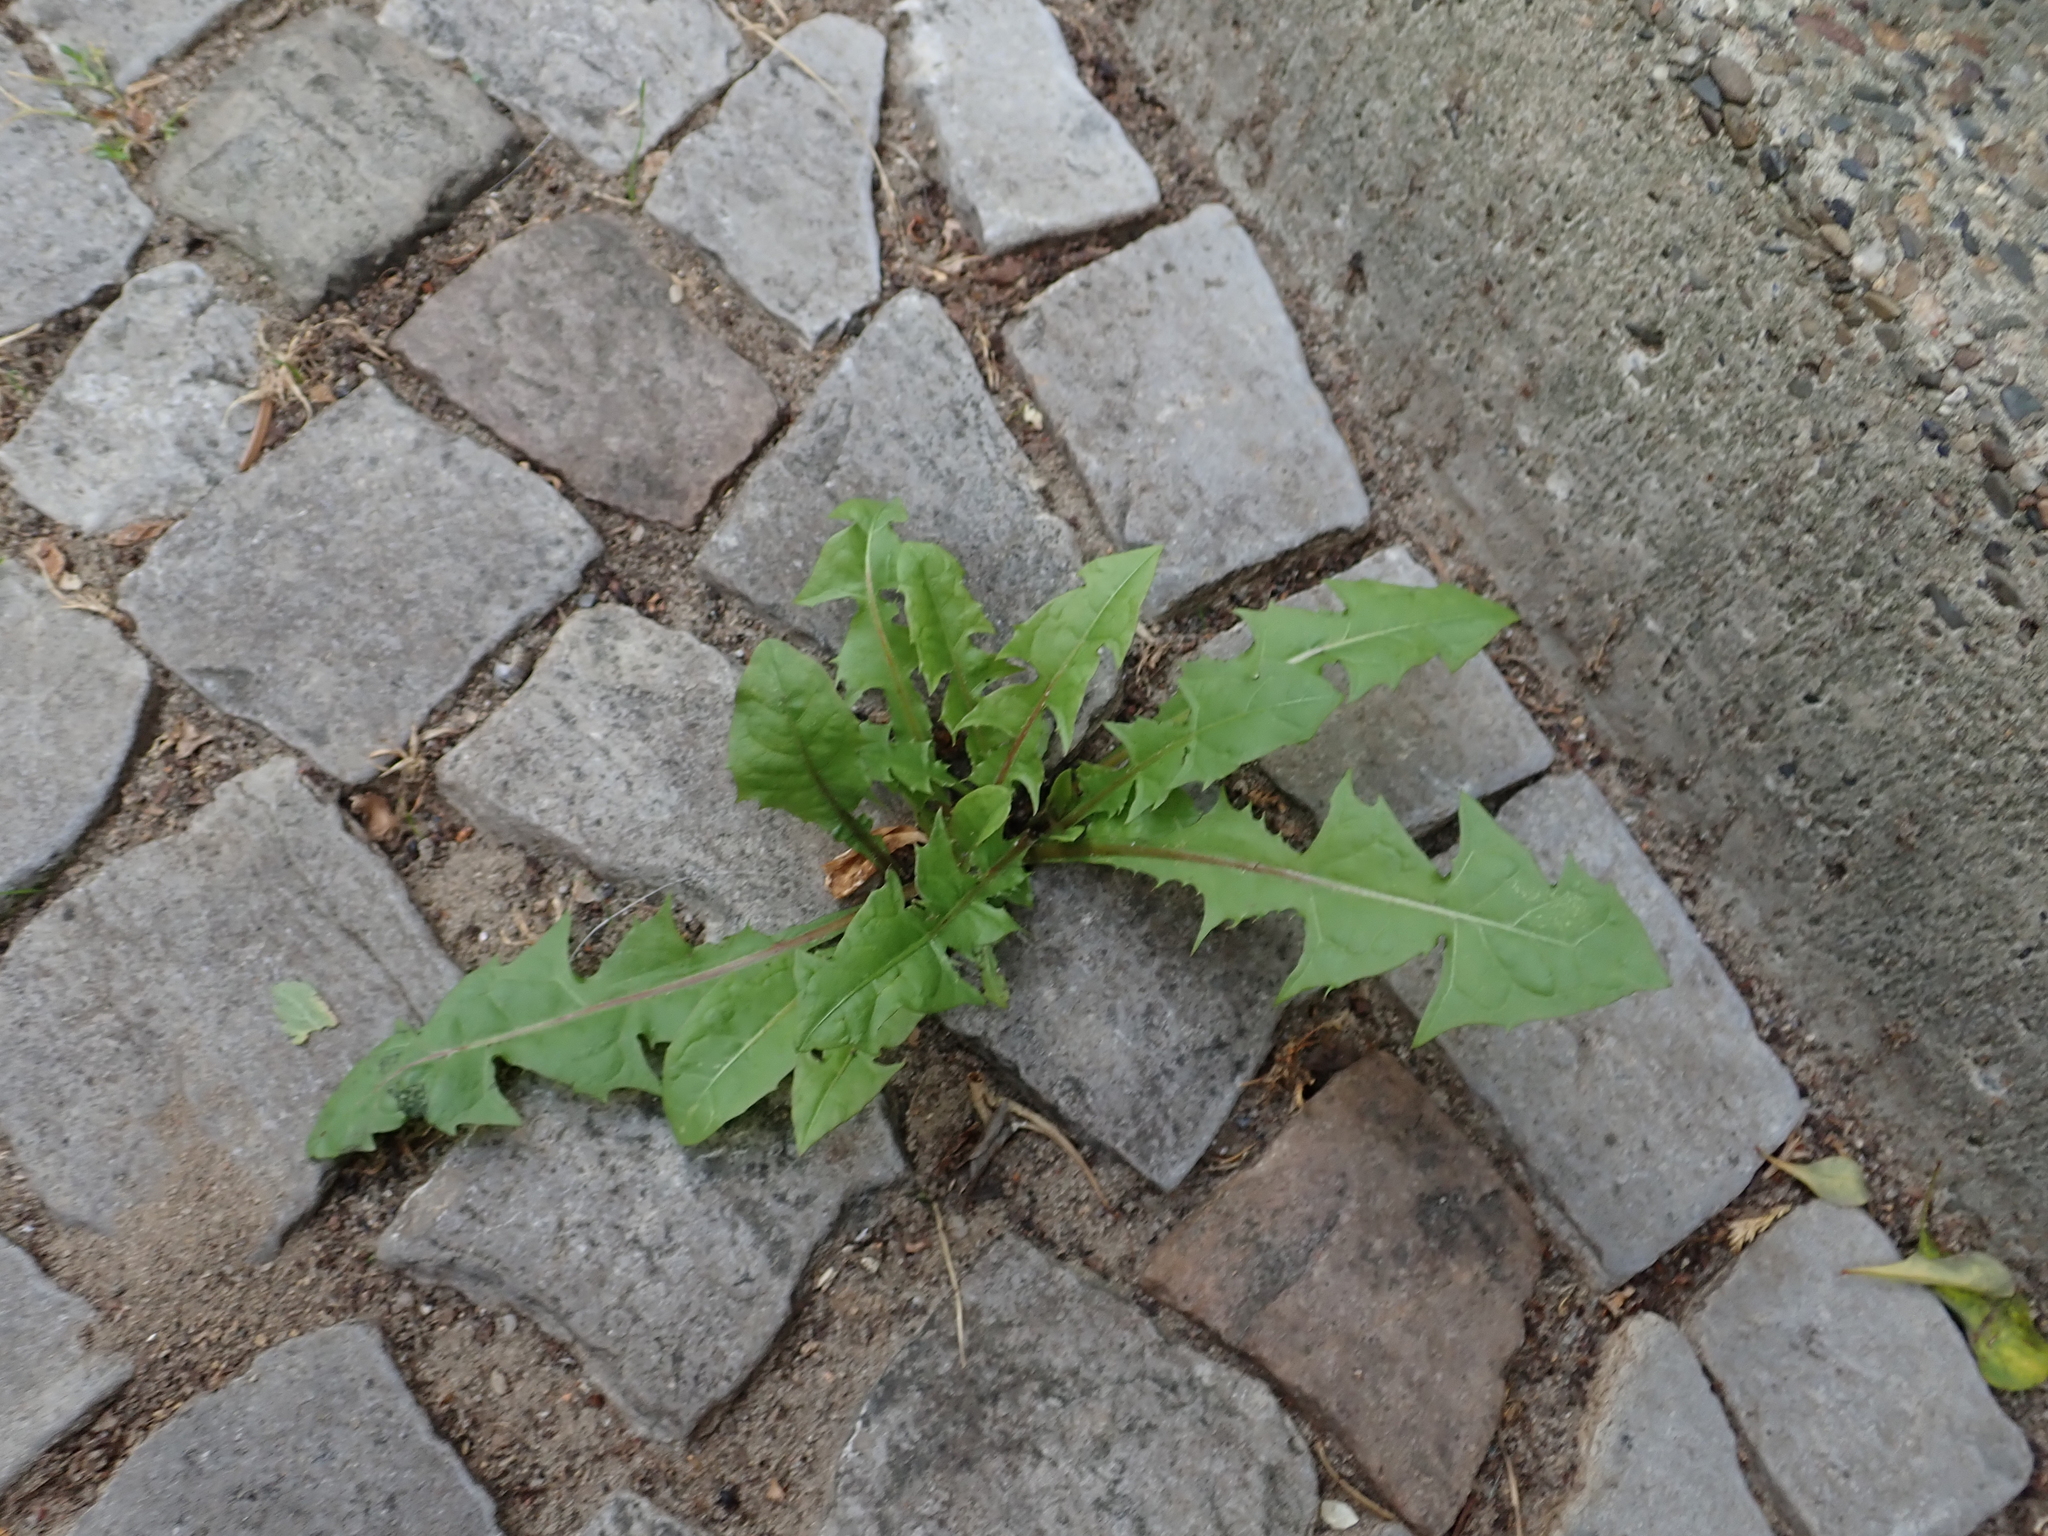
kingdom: Plantae
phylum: Tracheophyta
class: Magnoliopsida
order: Asterales
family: Asteraceae
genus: Taraxacum
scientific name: Taraxacum officinale
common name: Common dandelion
